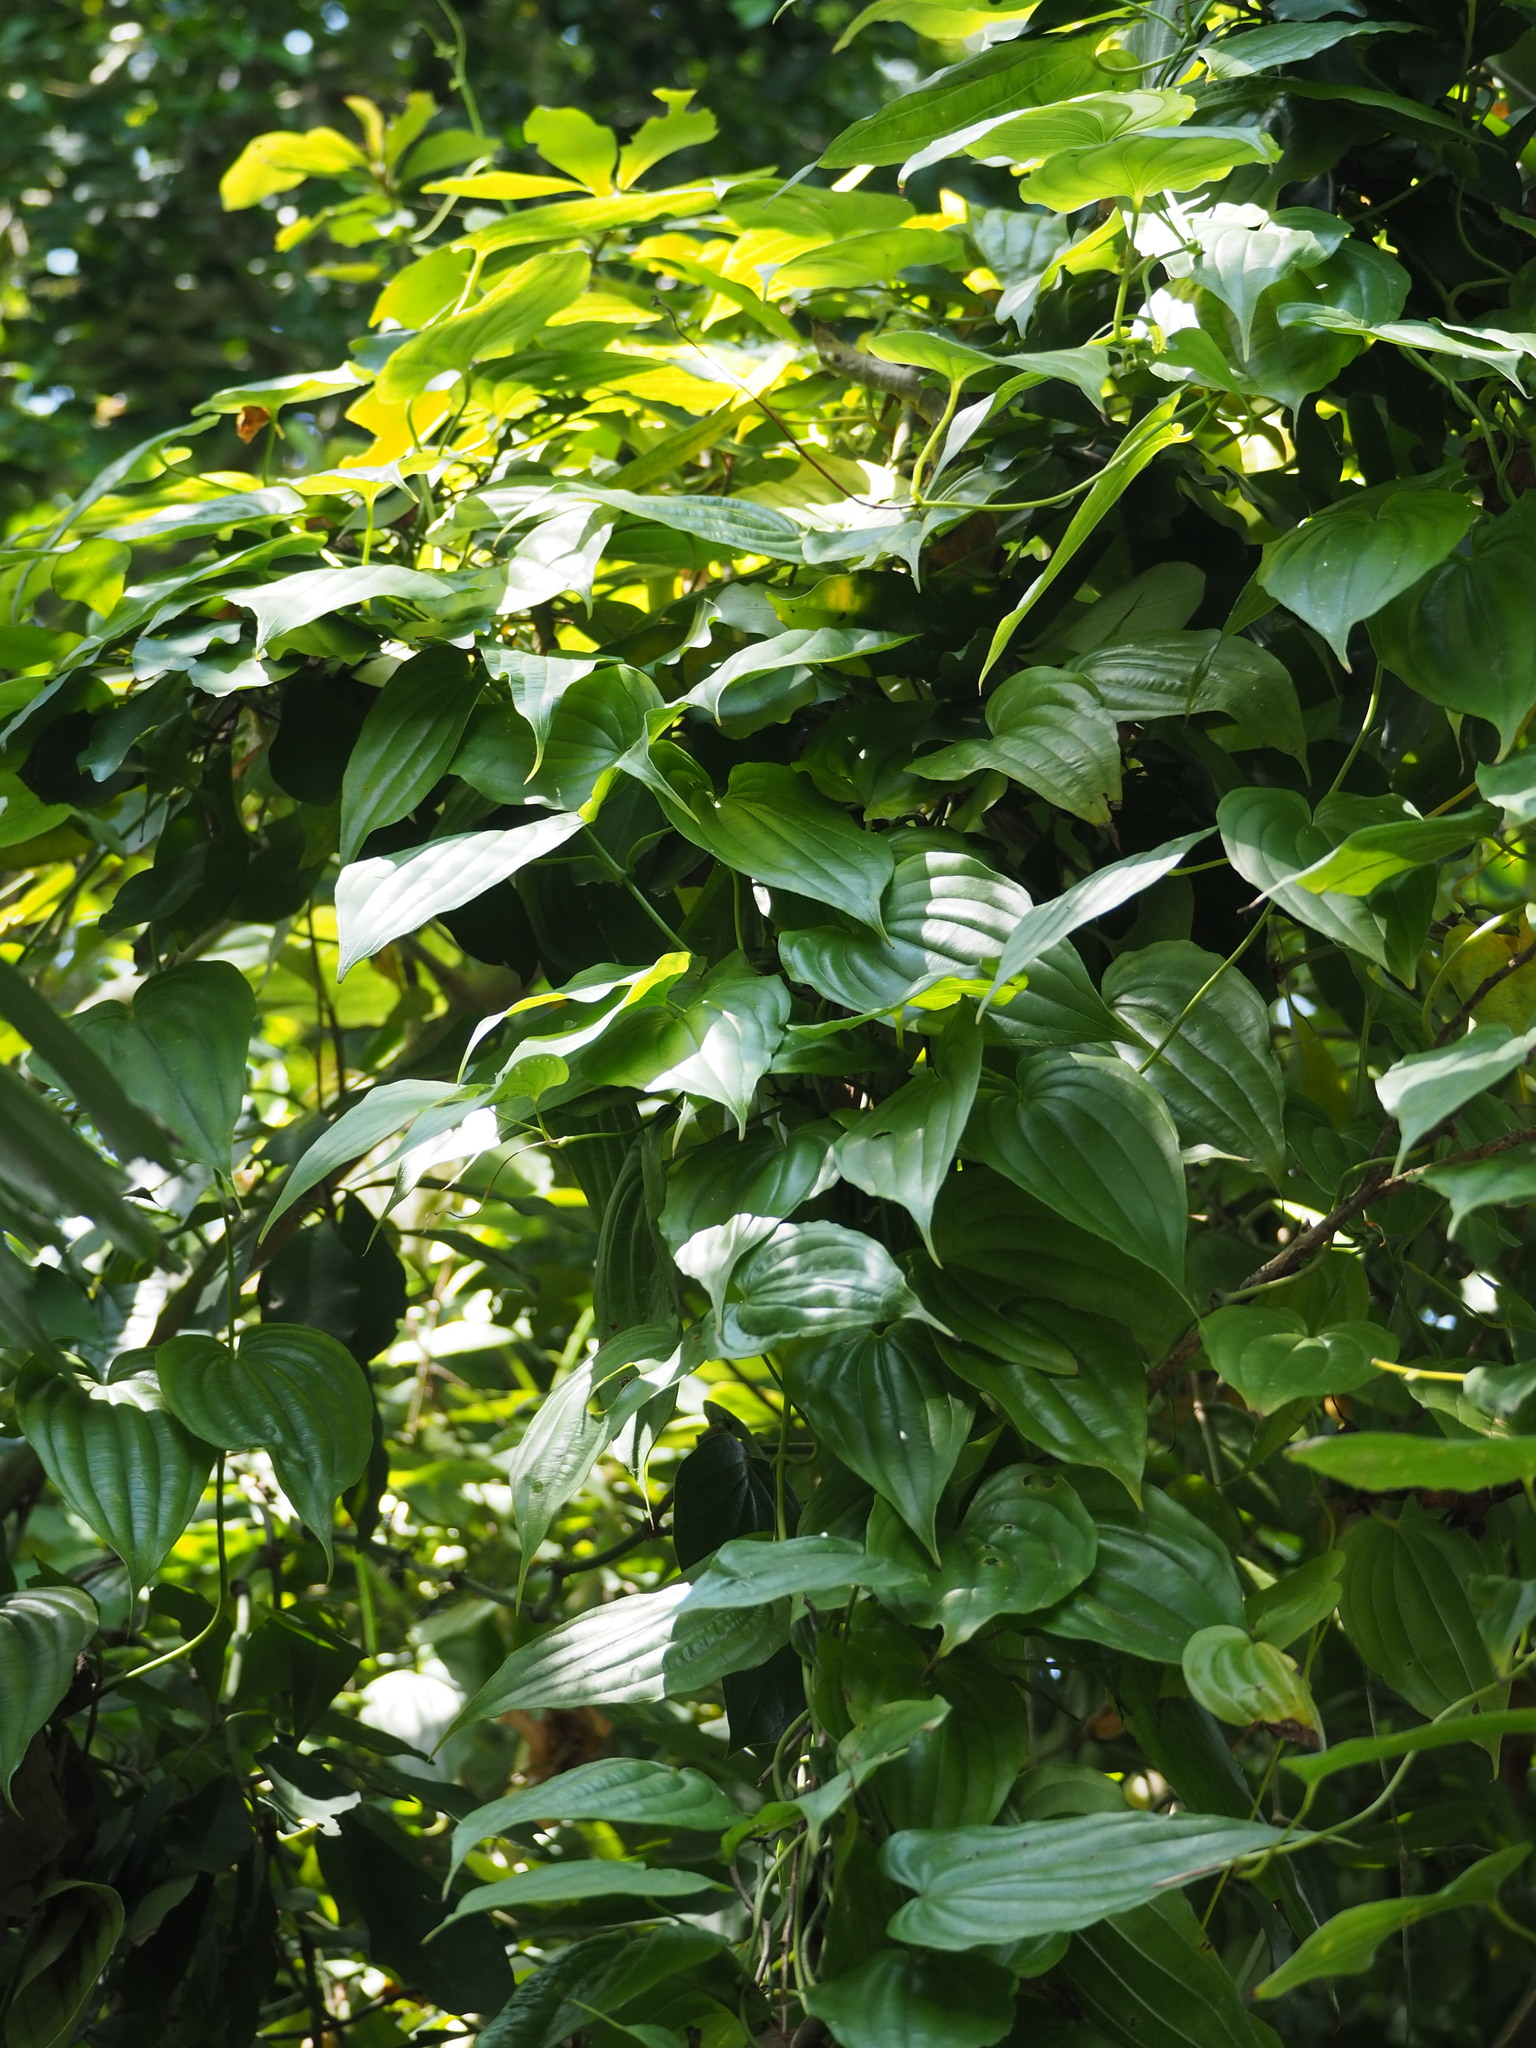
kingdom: Plantae
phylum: Tracheophyta
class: Liliopsida
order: Pandanales
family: Stemonaceae
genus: Stemona
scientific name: Stemona tuberosa
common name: Stemona
